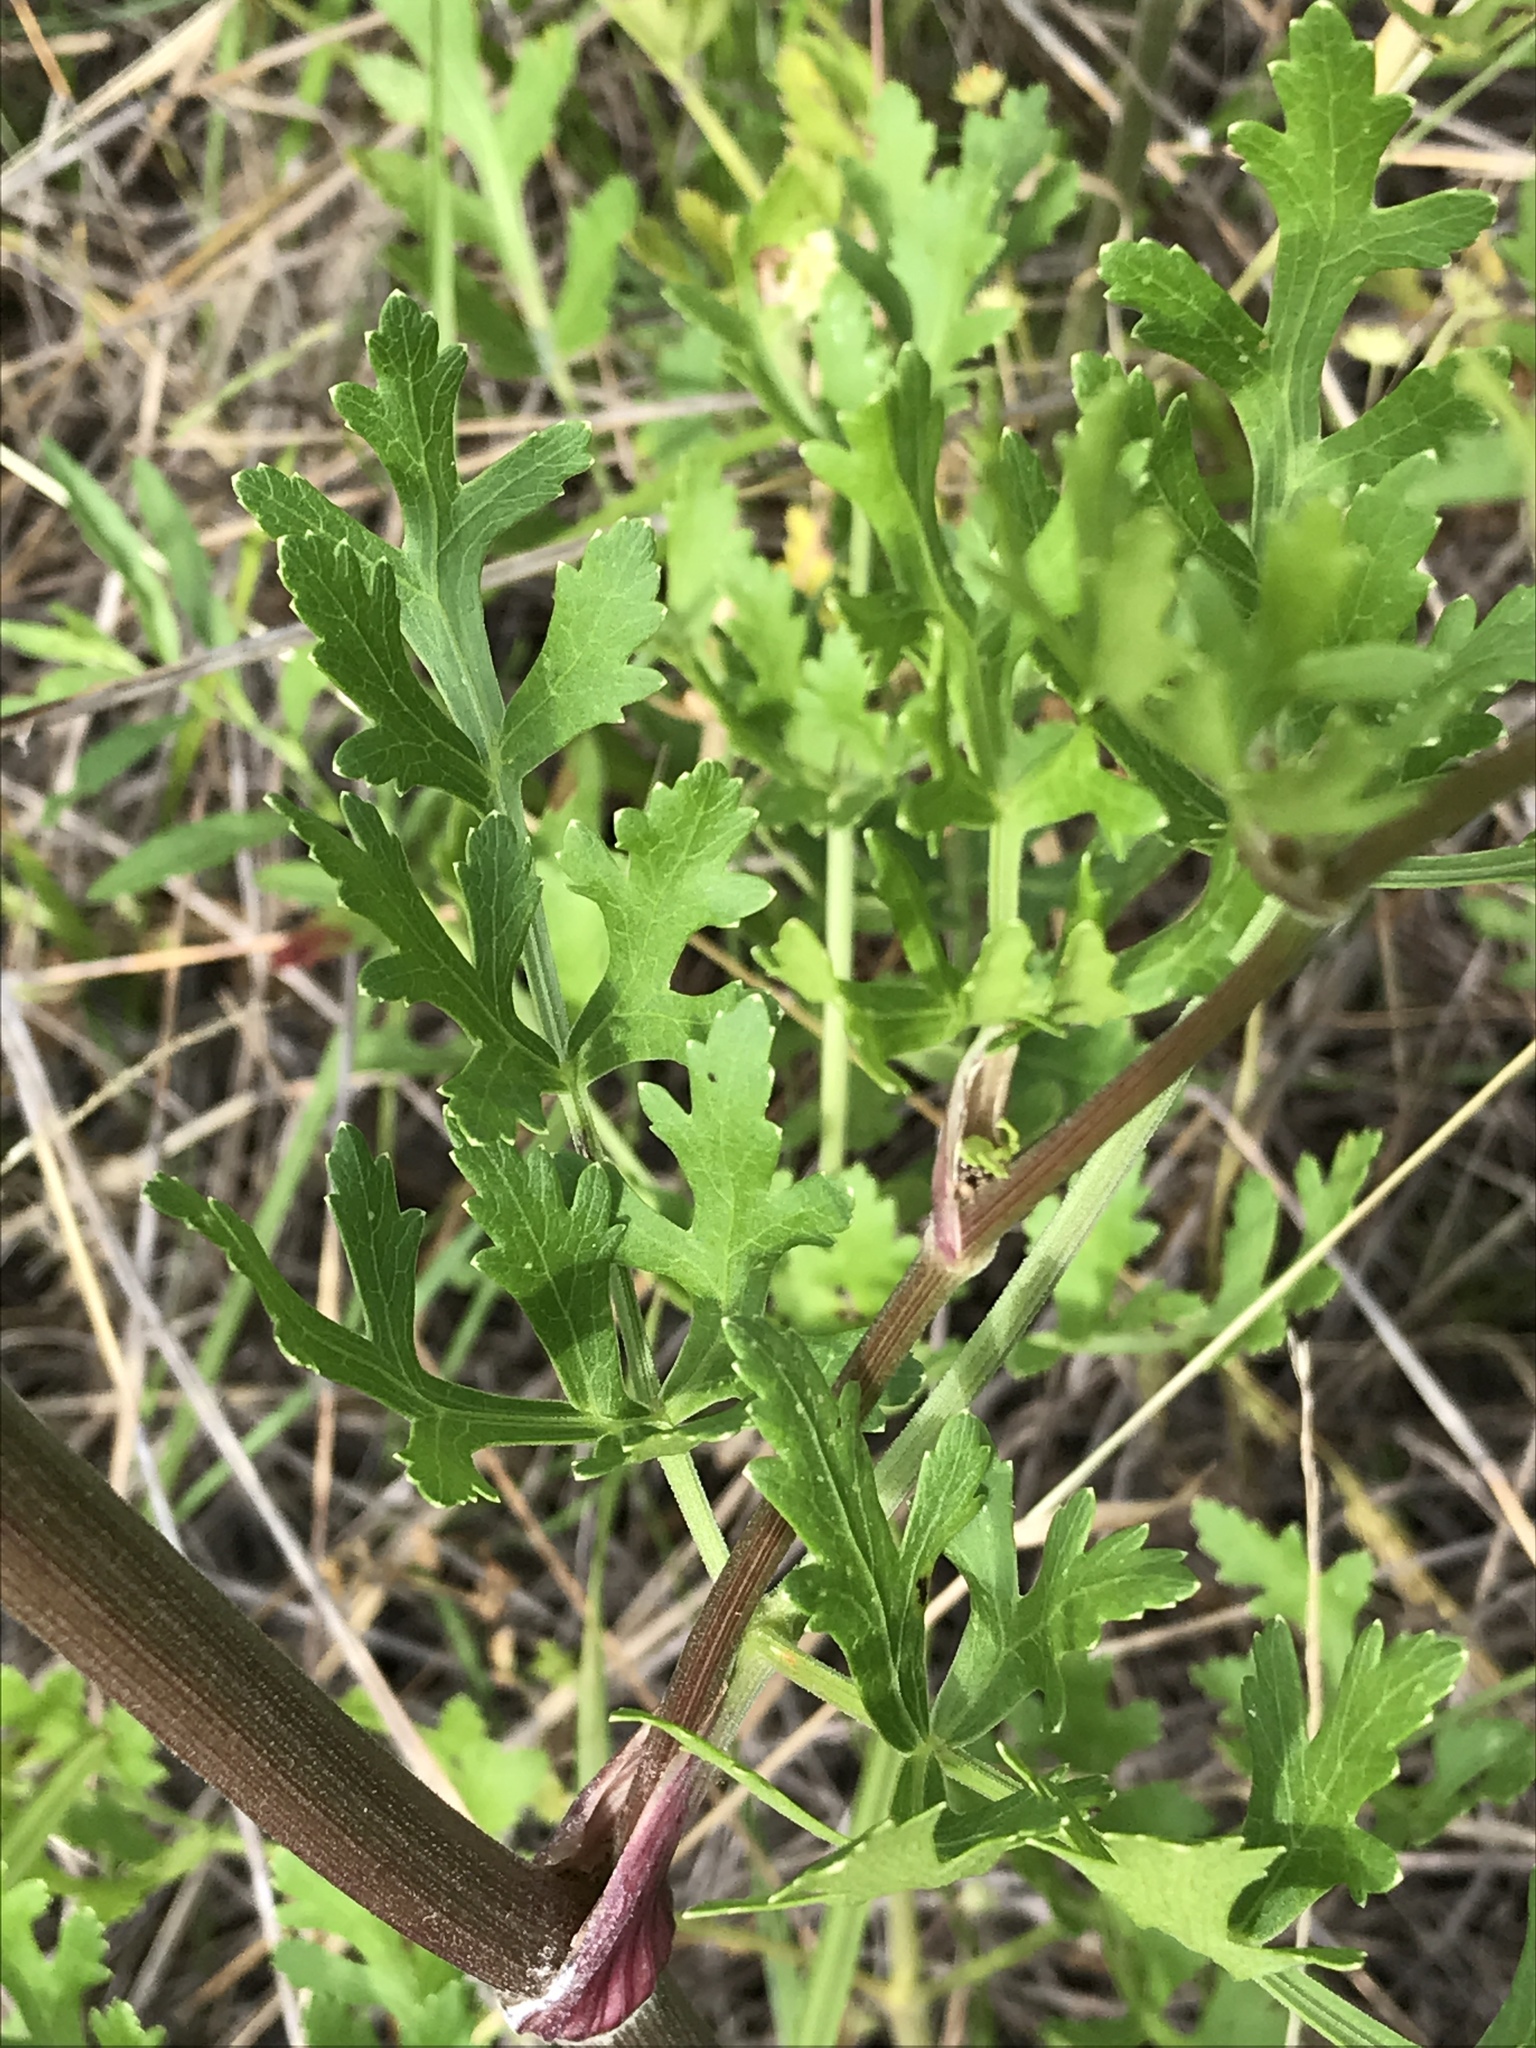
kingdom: Plantae
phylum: Tracheophyta
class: Magnoliopsida
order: Apiales
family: Apiaceae
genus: Polytaenia
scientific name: Polytaenia texana
